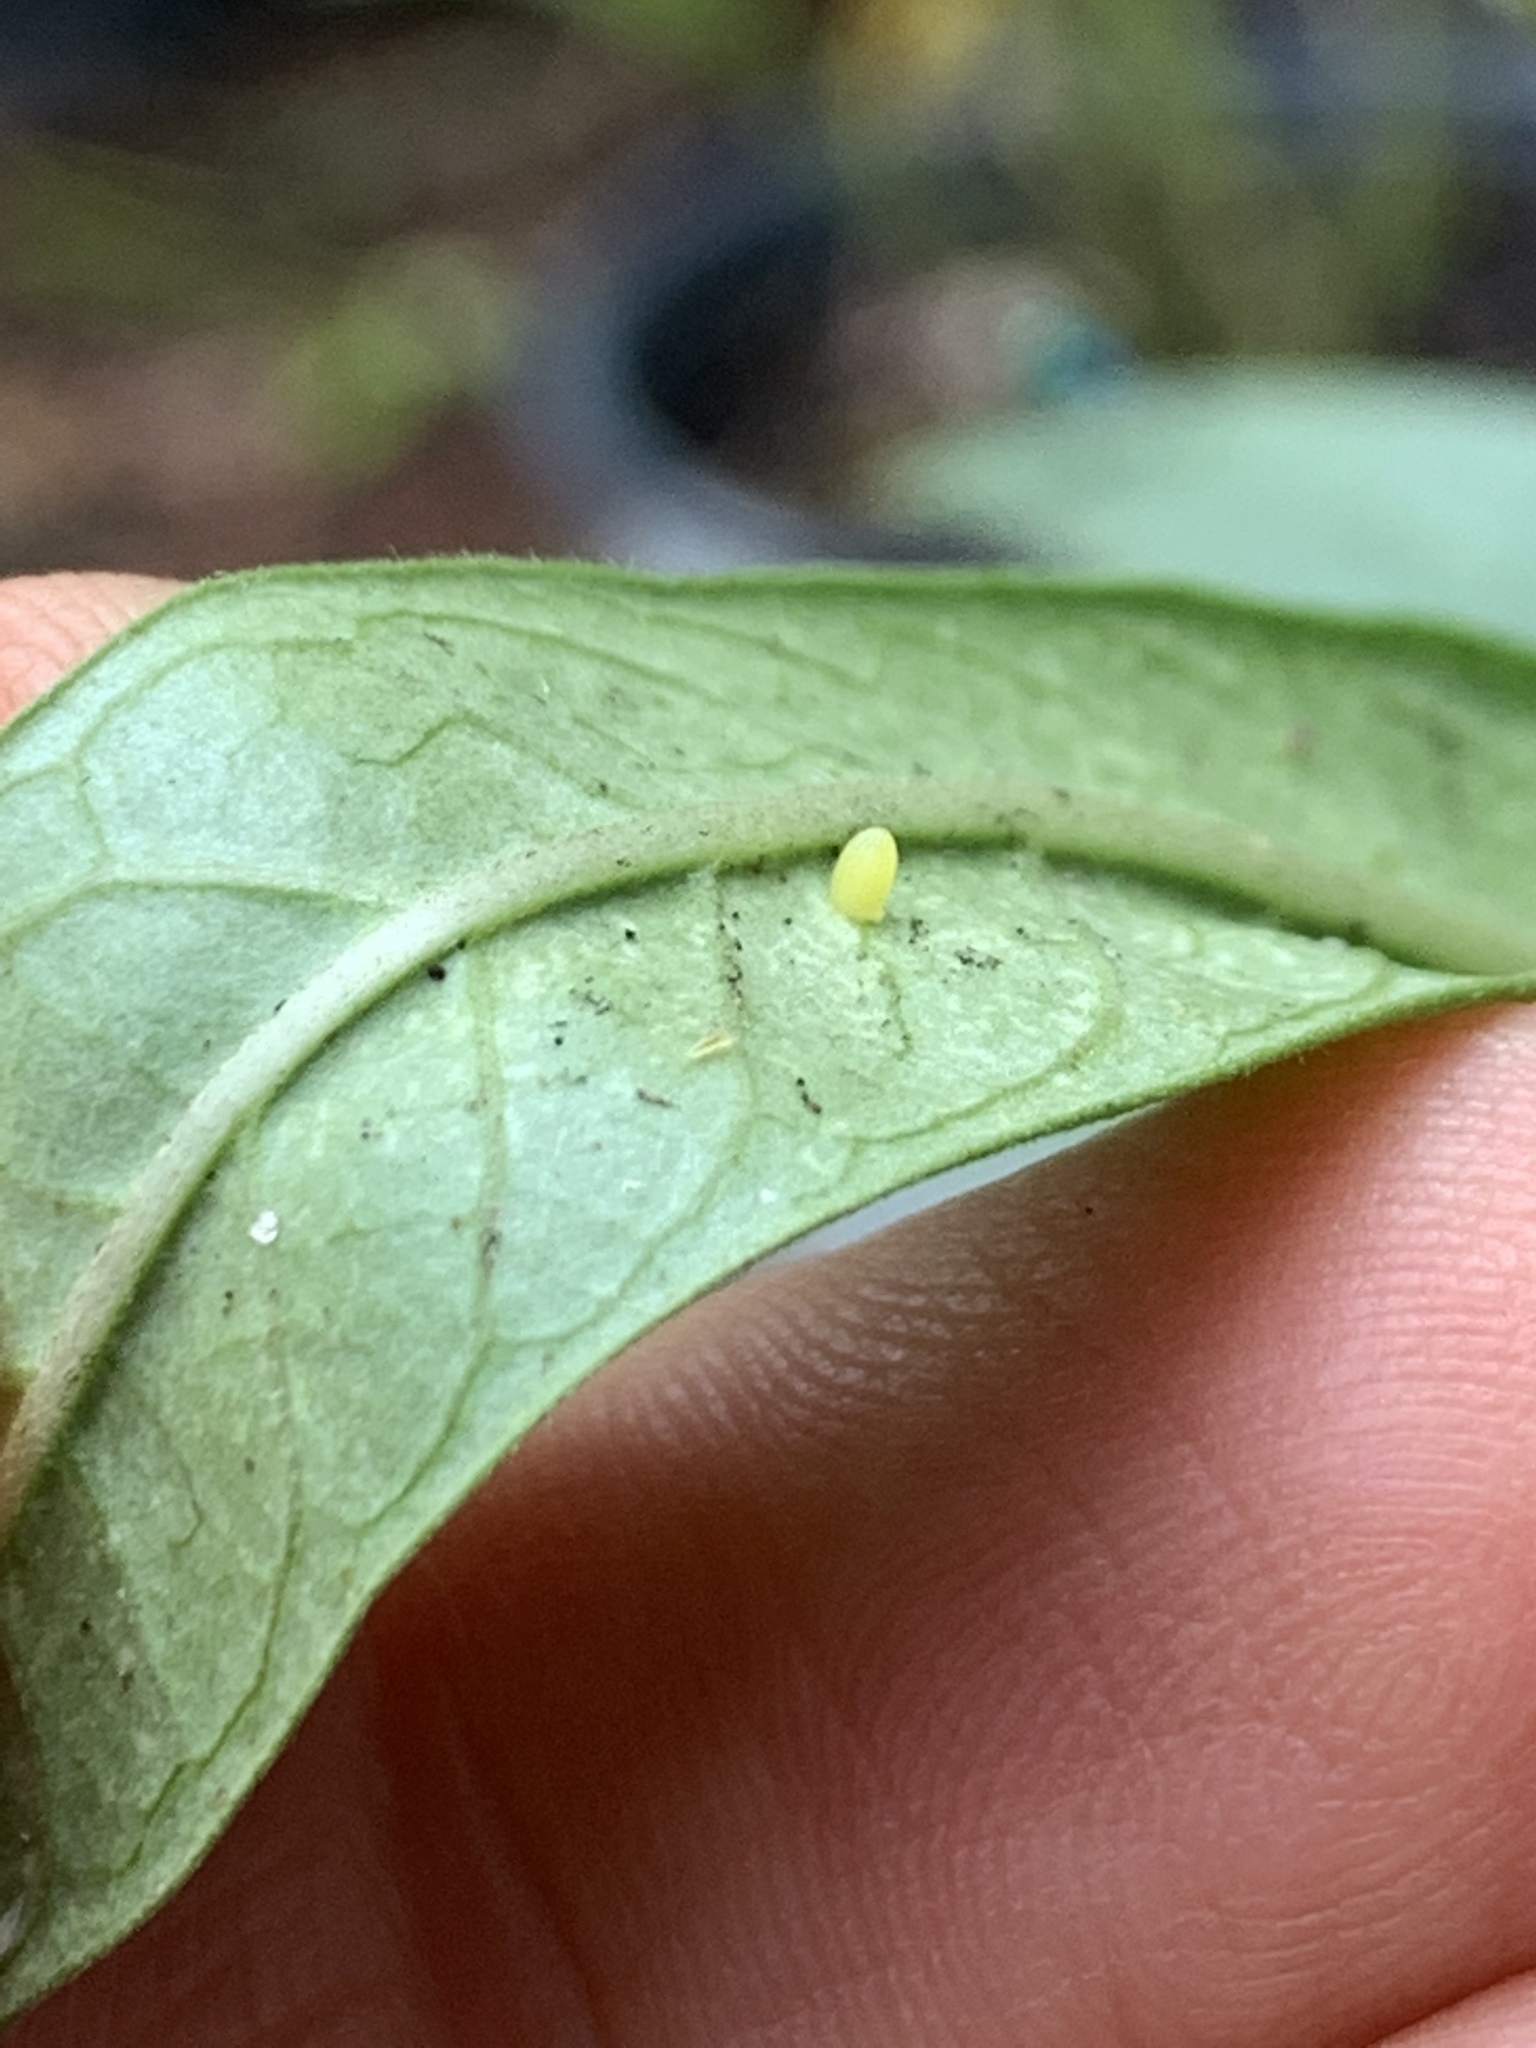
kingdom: Animalia
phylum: Arthropoda
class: Insecta
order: Lepidoptera
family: Nymphalidae
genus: Danaus
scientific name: Danaus plexippus
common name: Monarch
